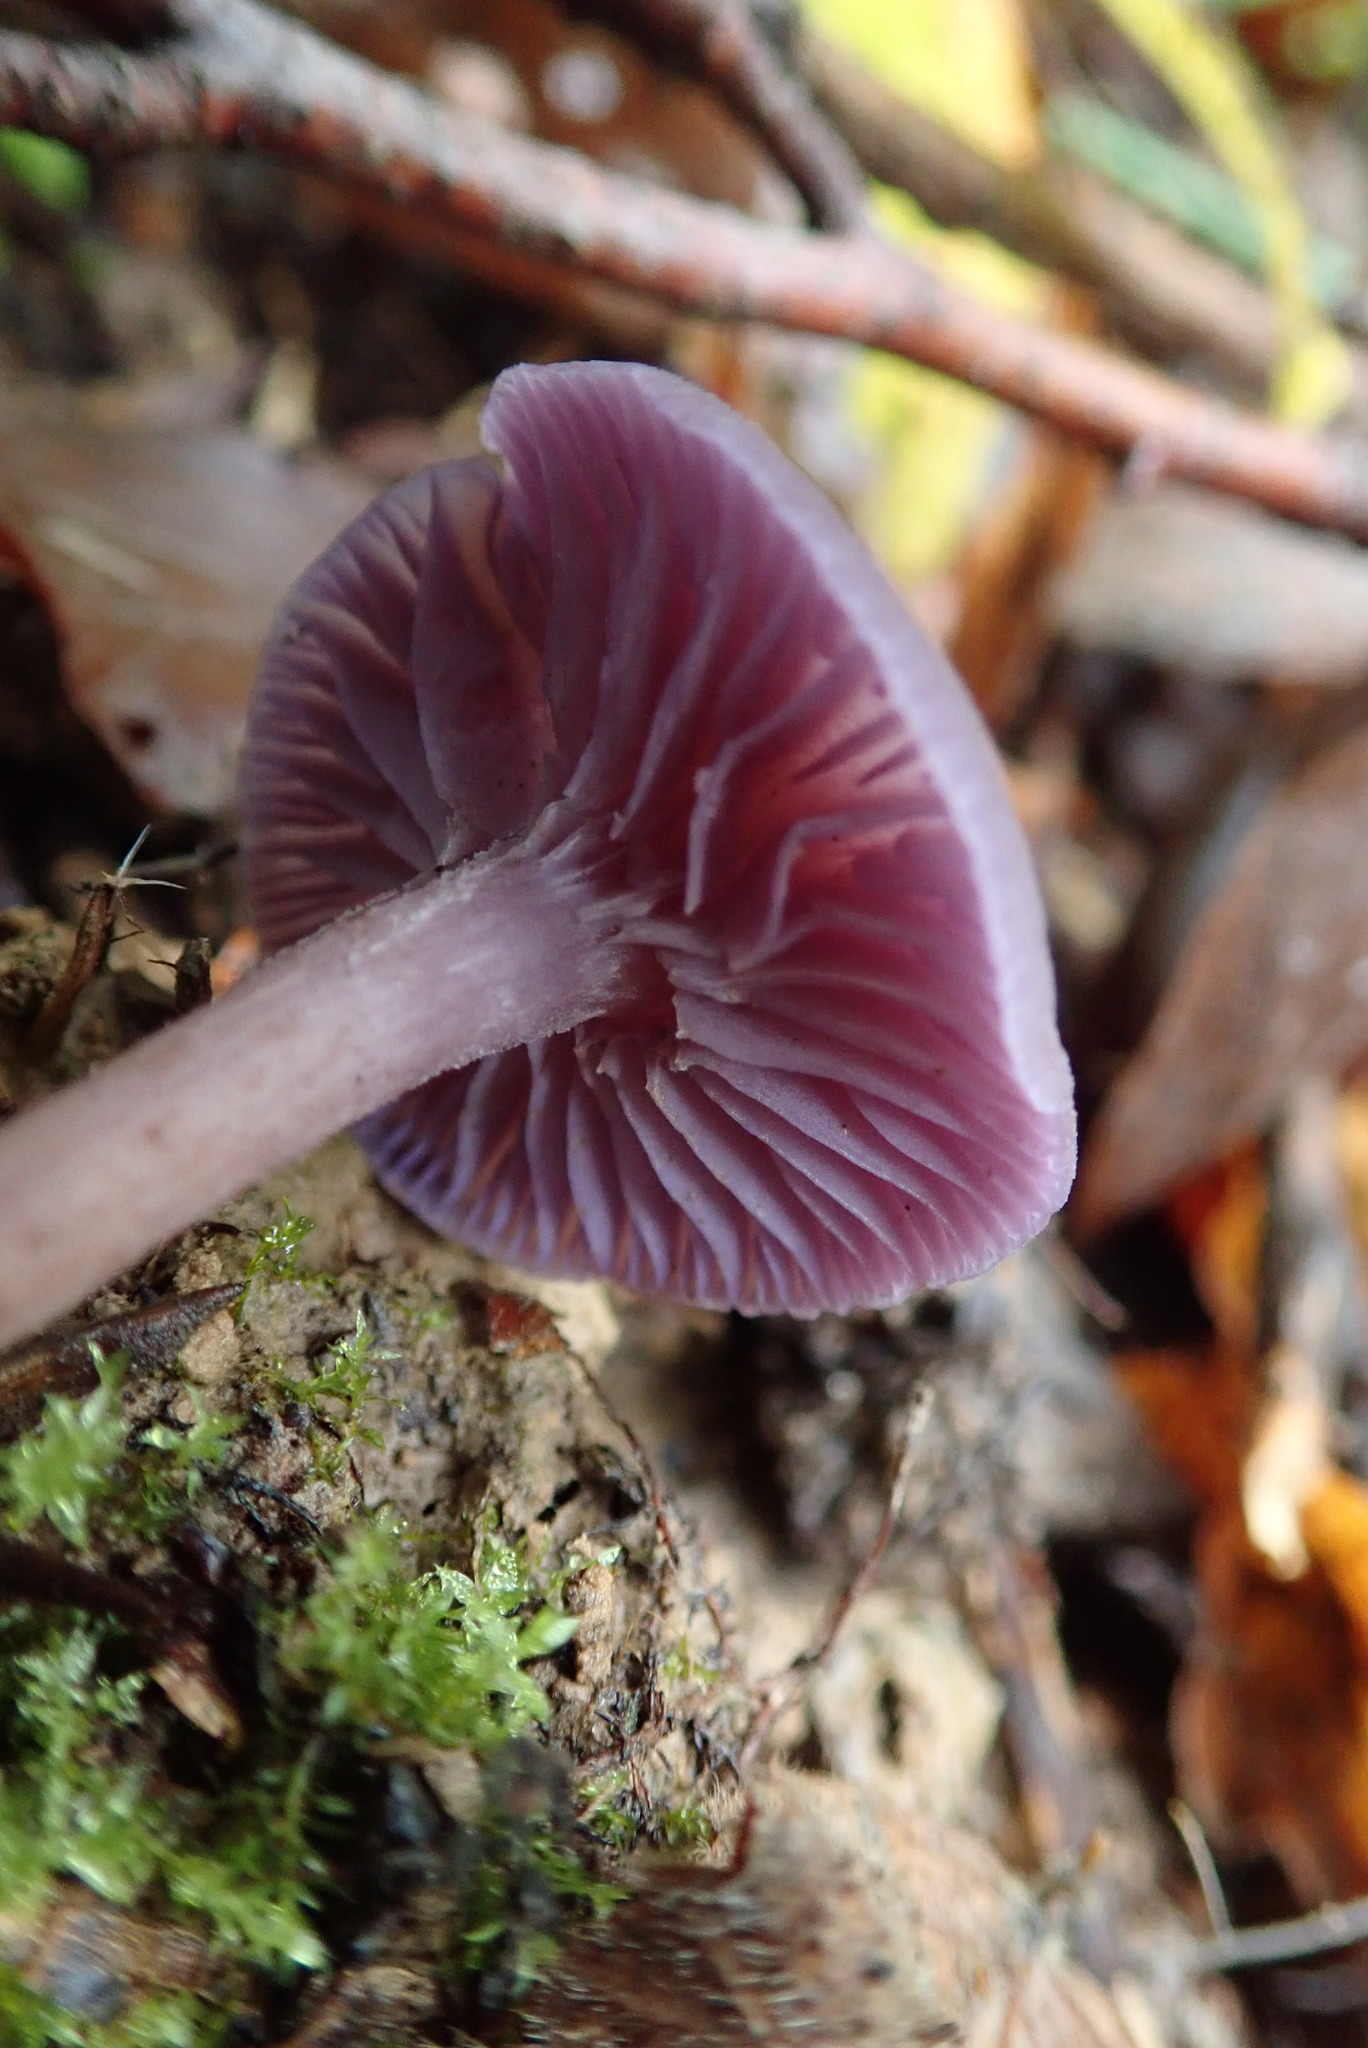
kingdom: Fungi
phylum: Basidiomycota
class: Agaricomycetes
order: Agaricales
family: Hydnangiaceae
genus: Laccaria
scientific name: Laccaria amethystina
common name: Amethyst deceiver
